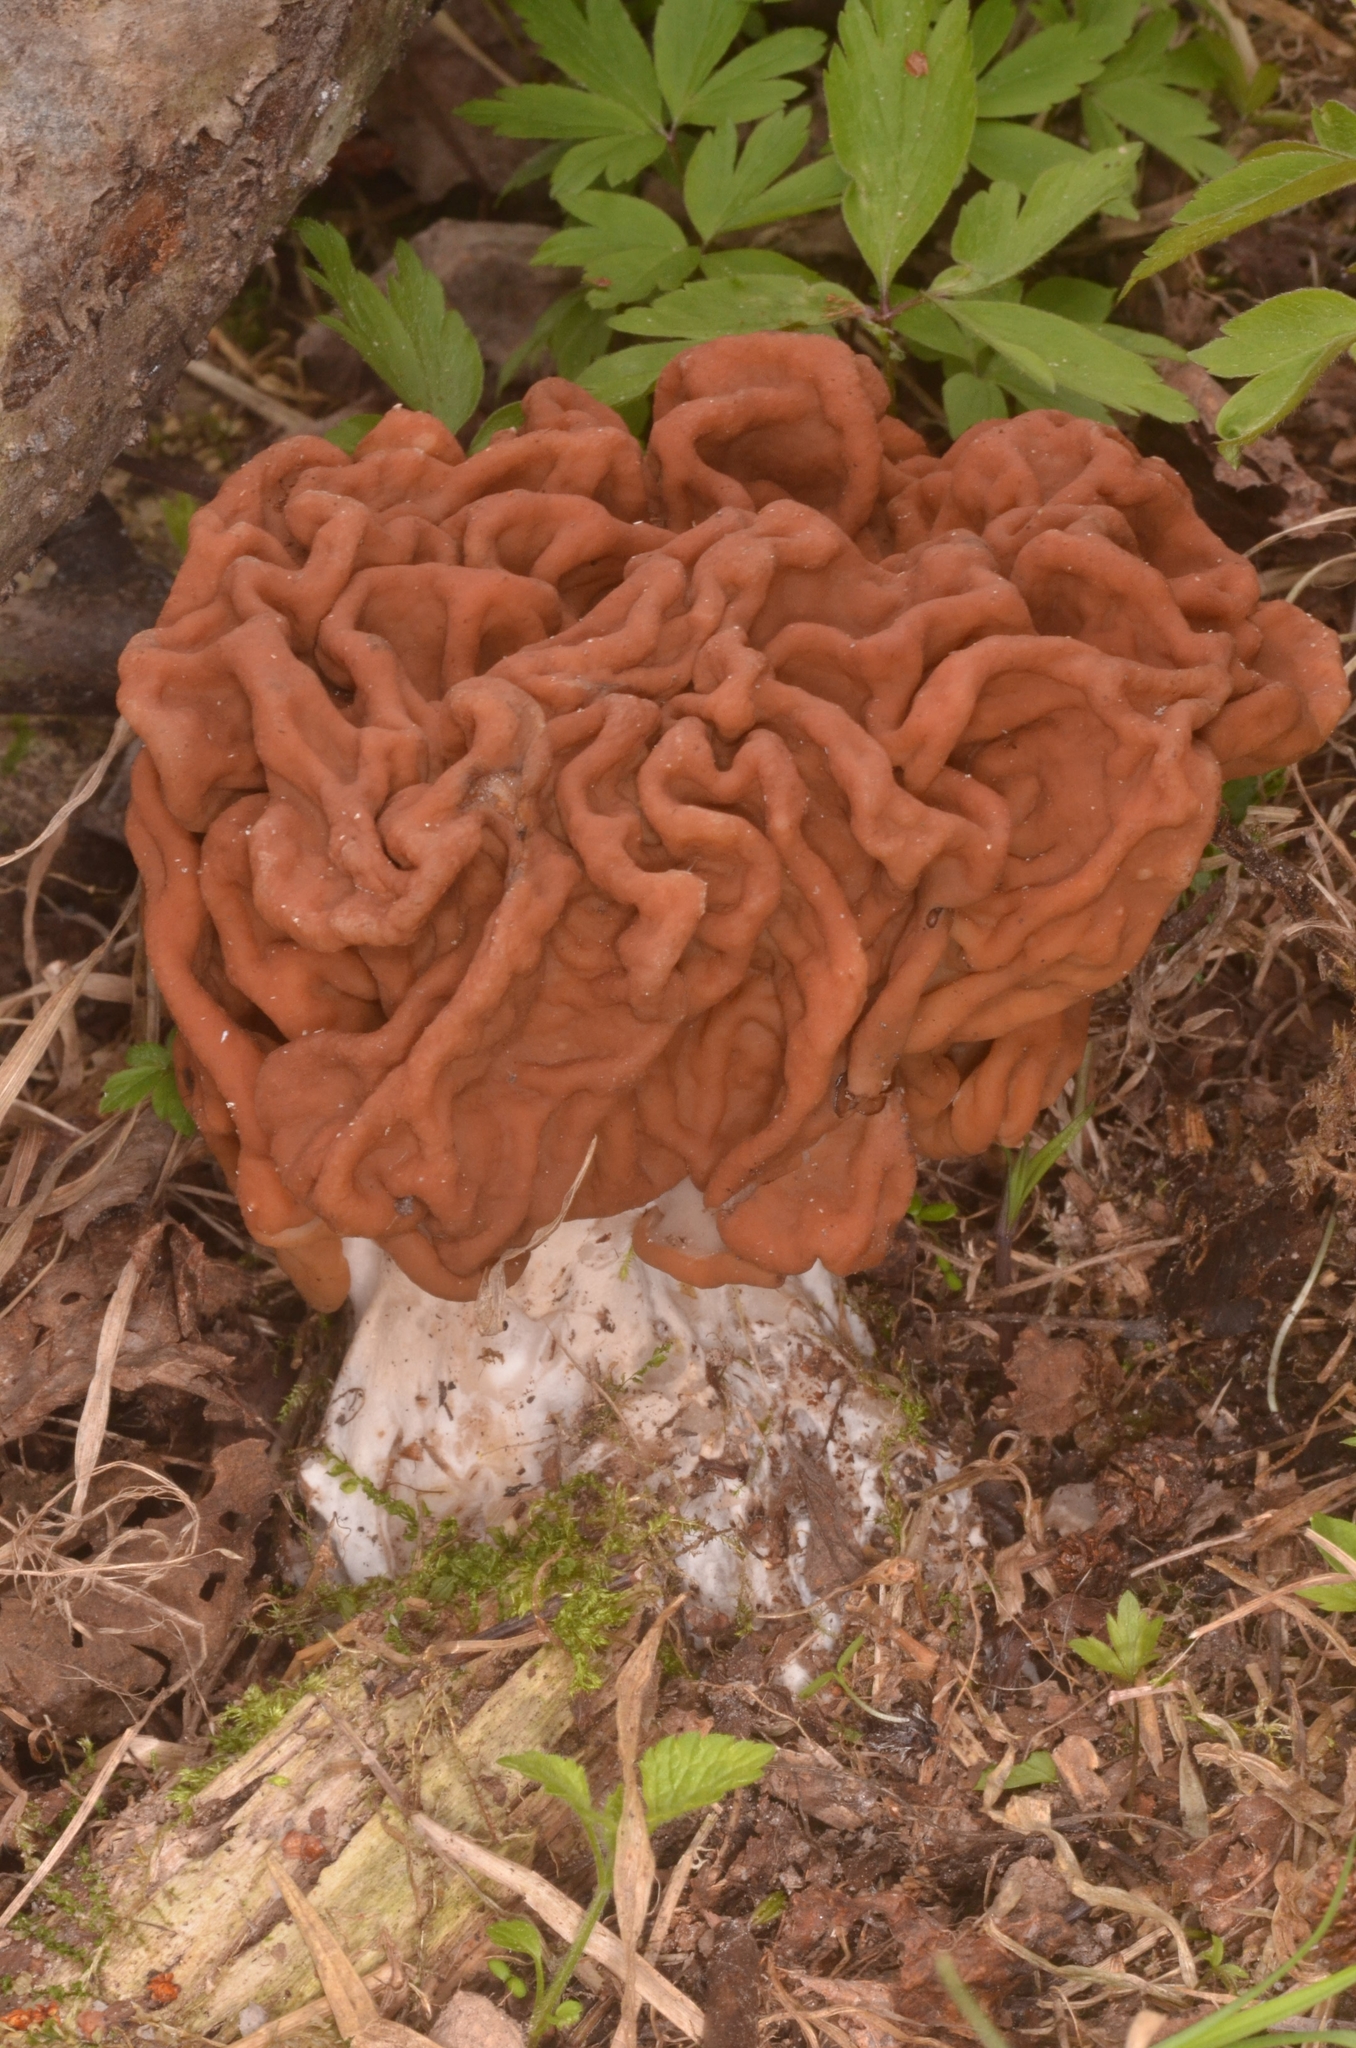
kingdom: Fungi
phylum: Ascomycota
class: Pezizomycetes
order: Pezizales
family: Discinaceae
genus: Gyromitra
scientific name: Gyromitra gigas
